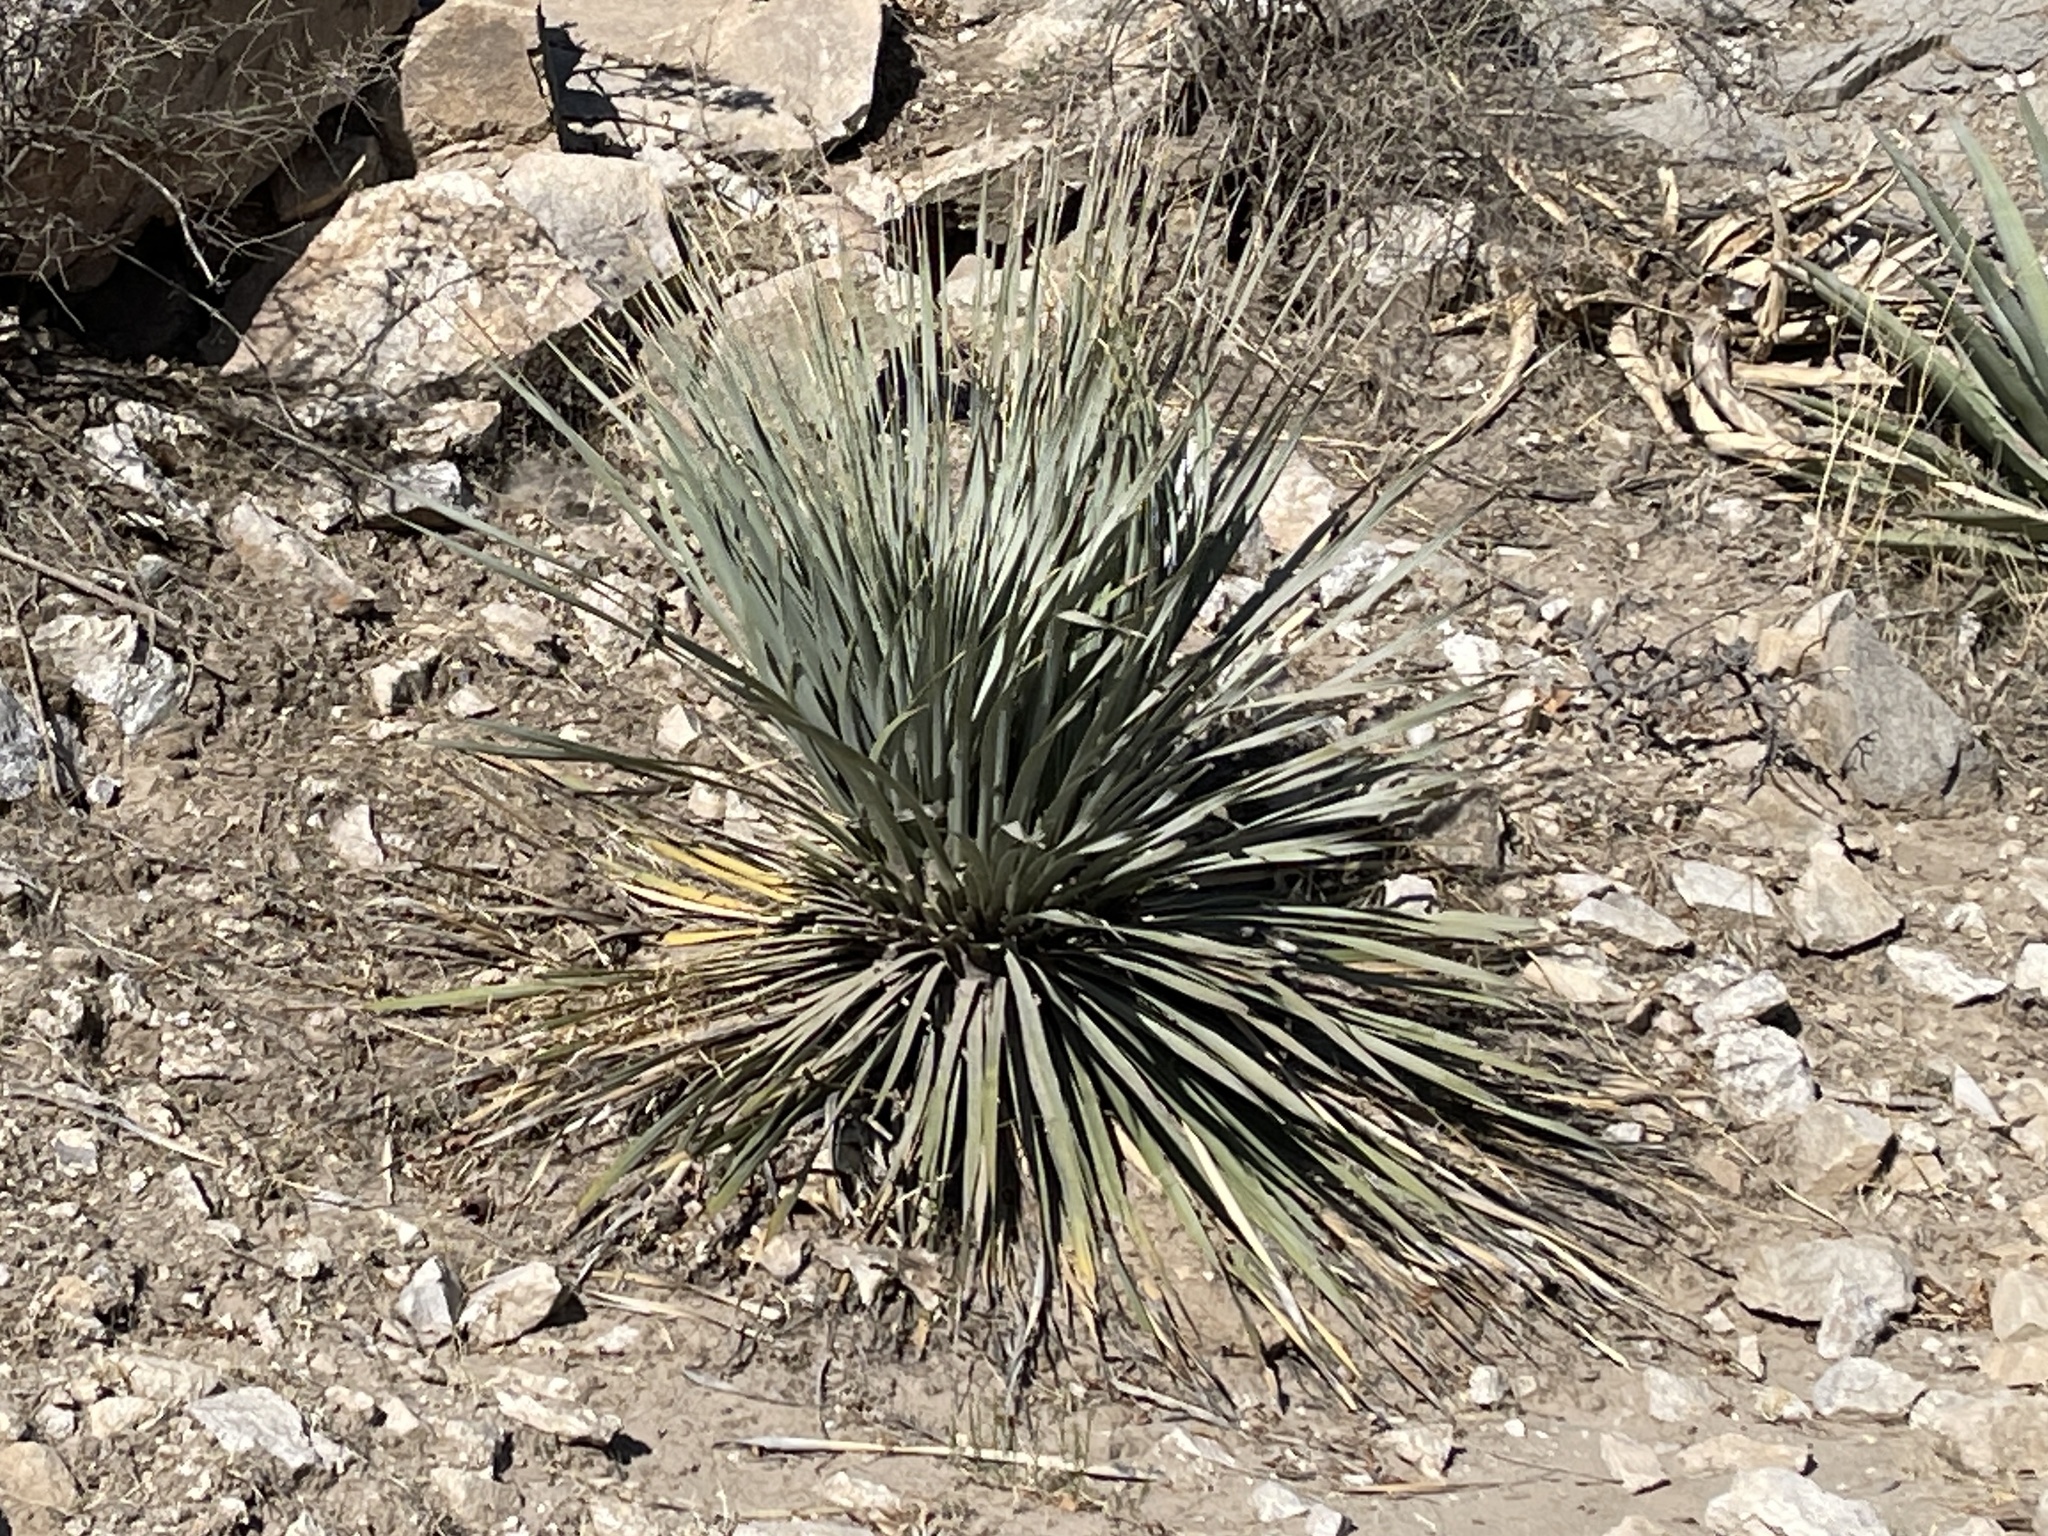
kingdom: Plantae
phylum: Tracheophyta
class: Liliopsida
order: Asparagales
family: Asparagaceae
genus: Dasylirion
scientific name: Dasylirion wheeleri
